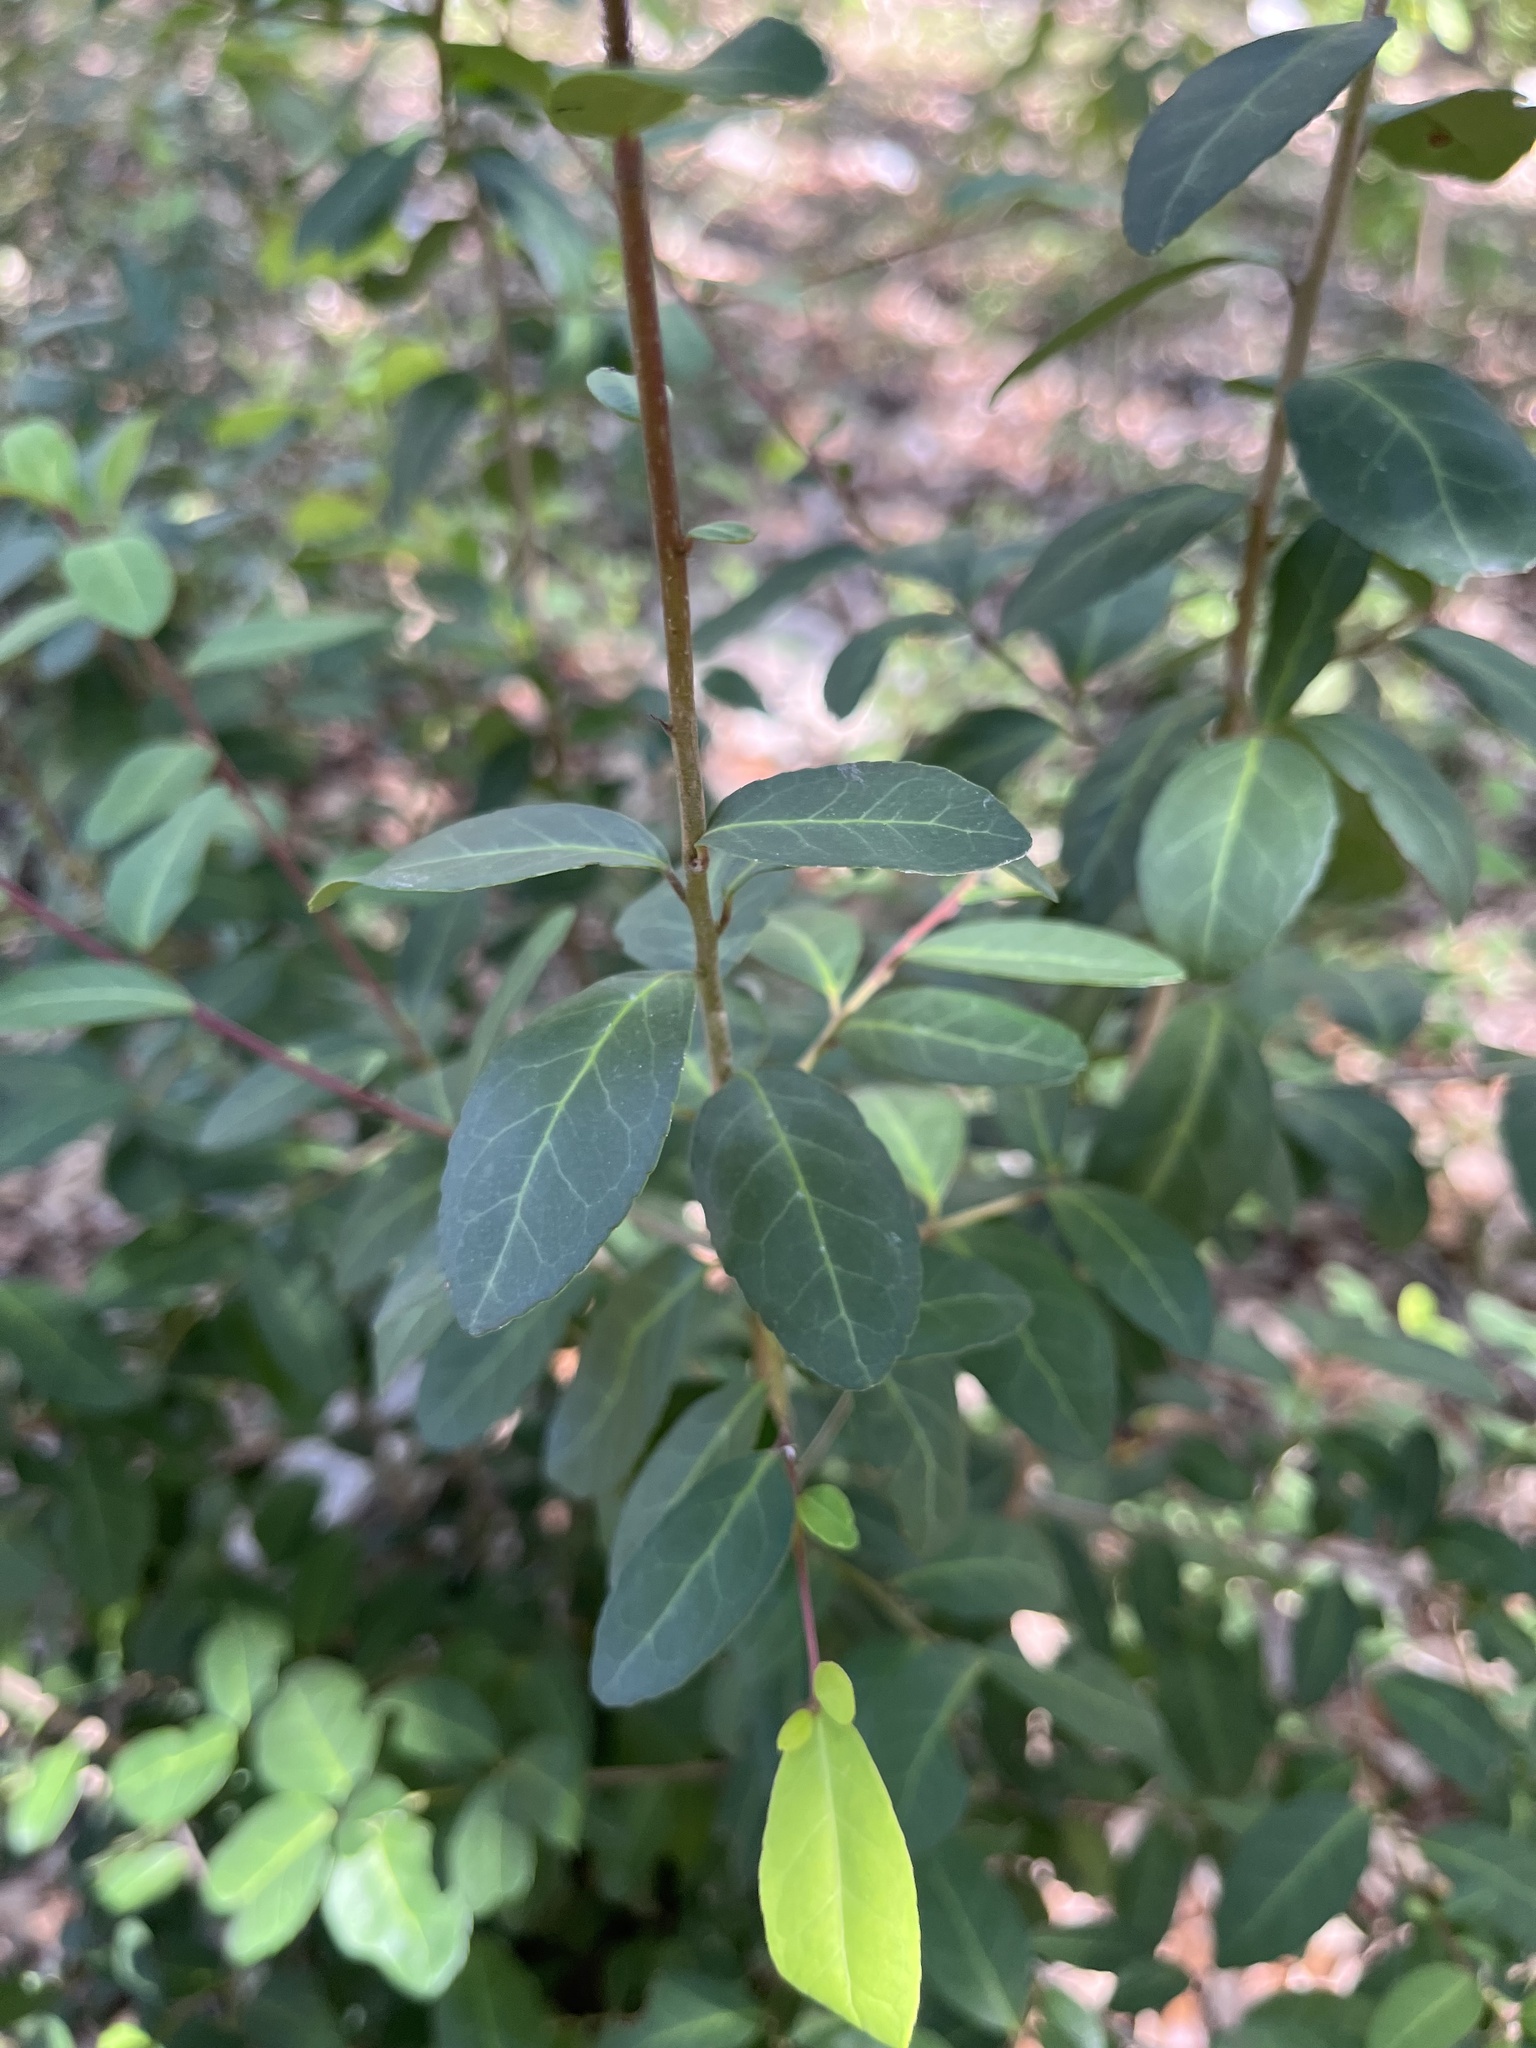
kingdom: Plantae
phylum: Tracheophyta
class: Magnoliopsida
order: Aquifoliales
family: Aquifoliaceae
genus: Ilex
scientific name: Ilex vomitoria
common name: Yaupon holly
